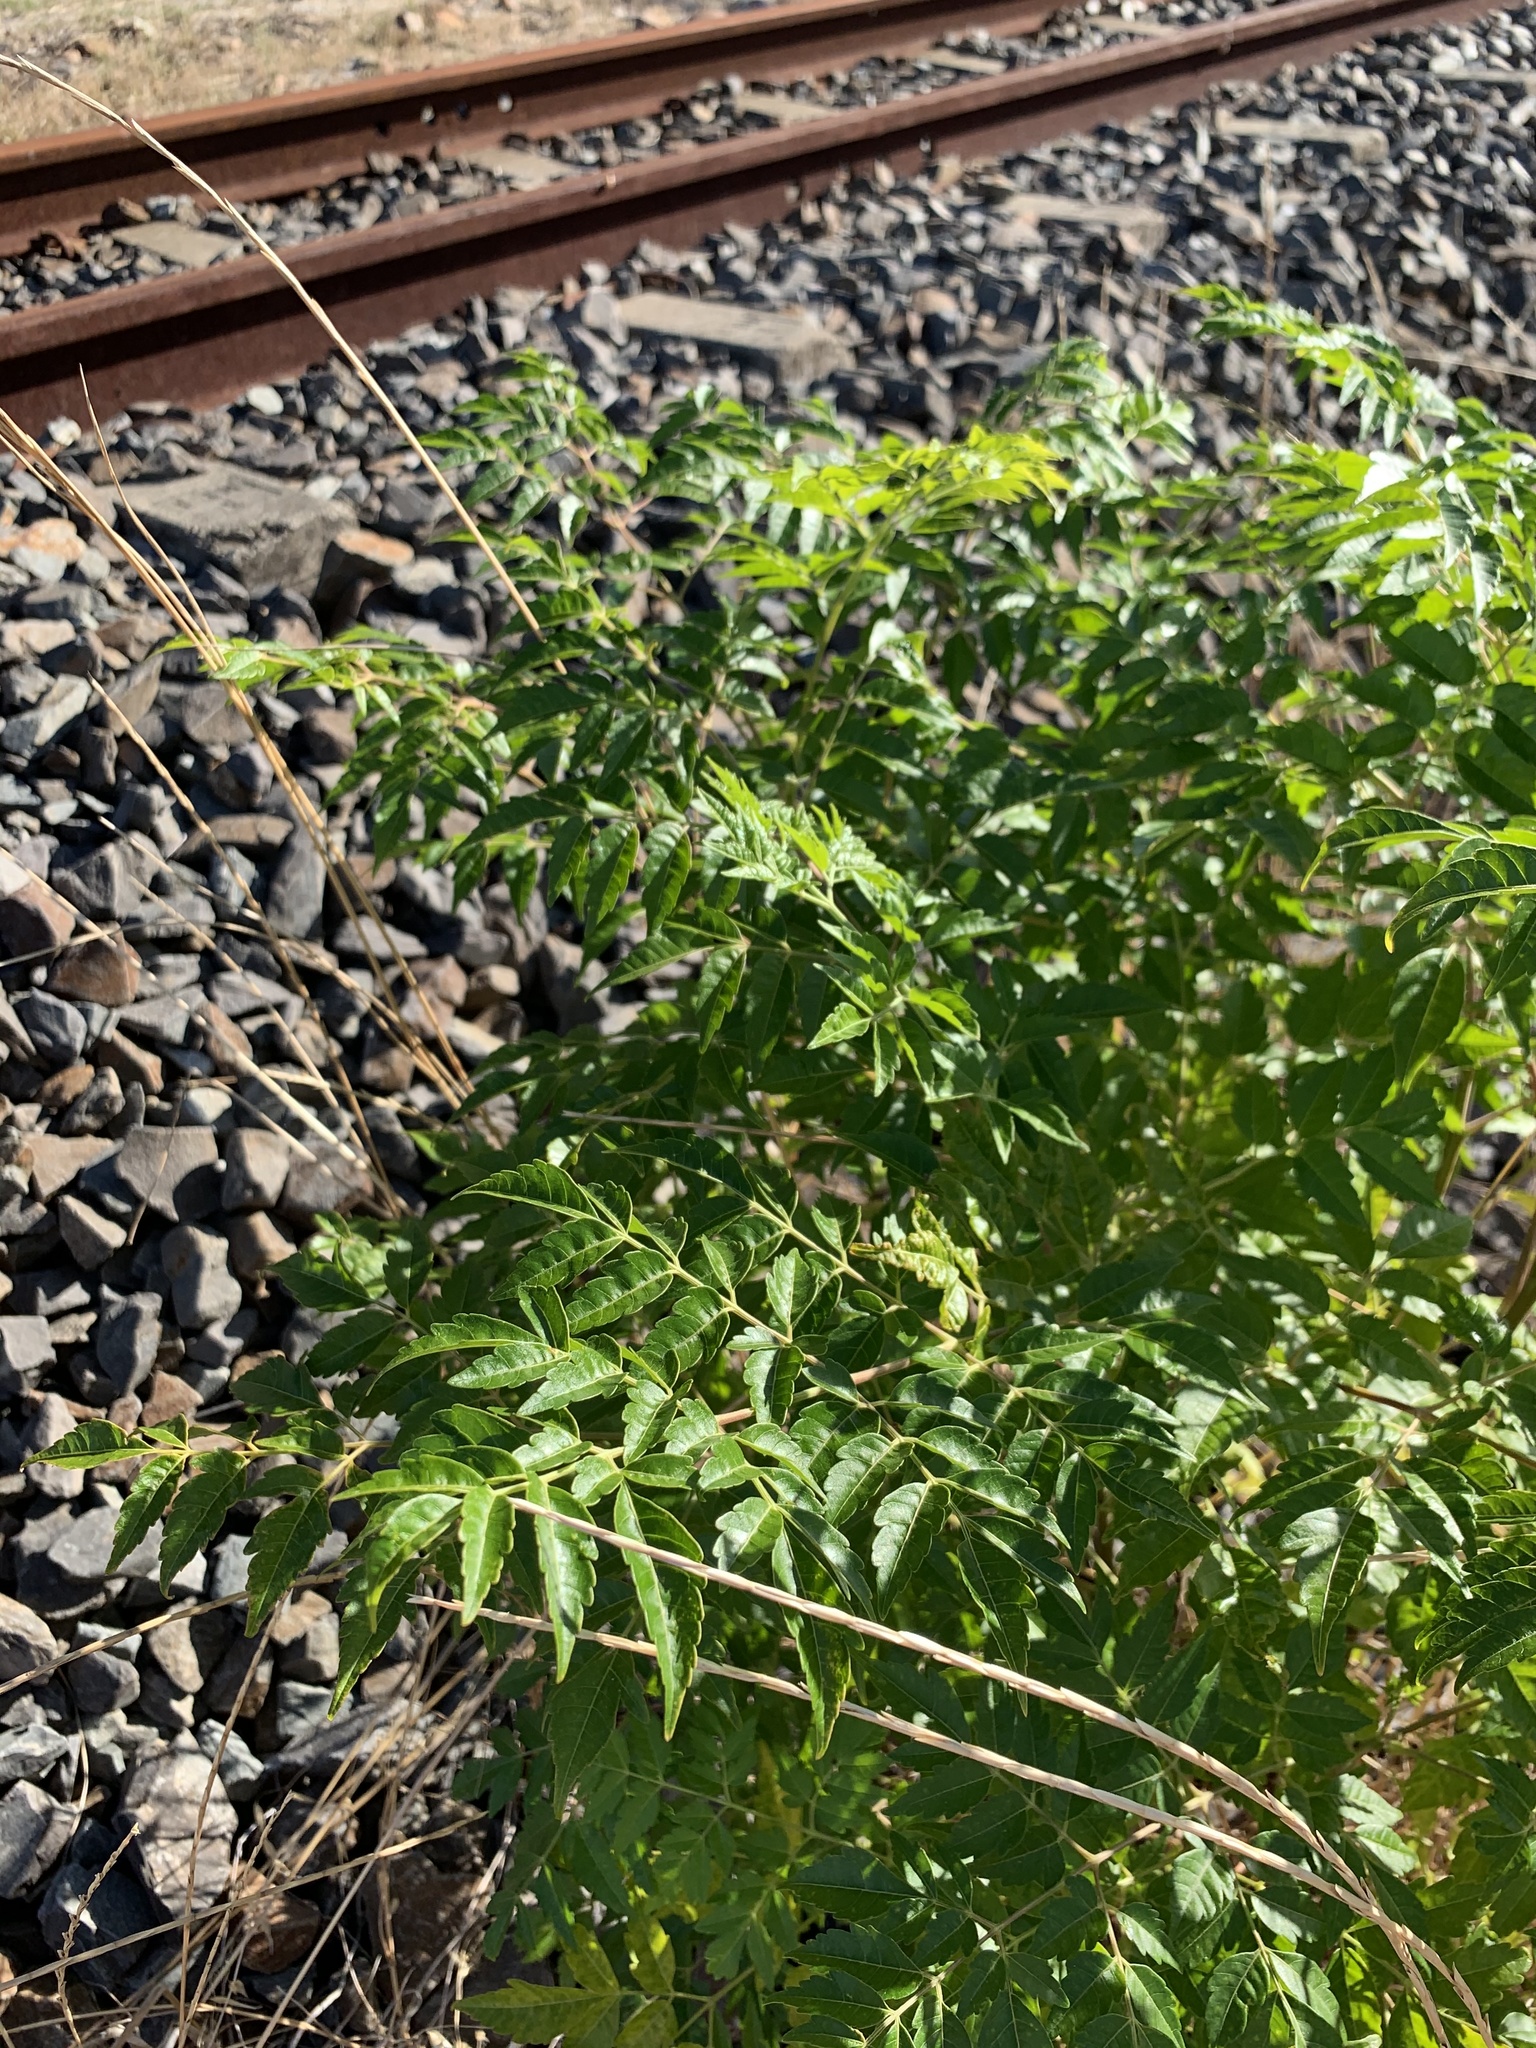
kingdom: Plantae
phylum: Tracheophyta
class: Magnoliopsida
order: Sapindales
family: Meliaceae
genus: Melia
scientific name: Melia azedarach
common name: Chinaberrytree
